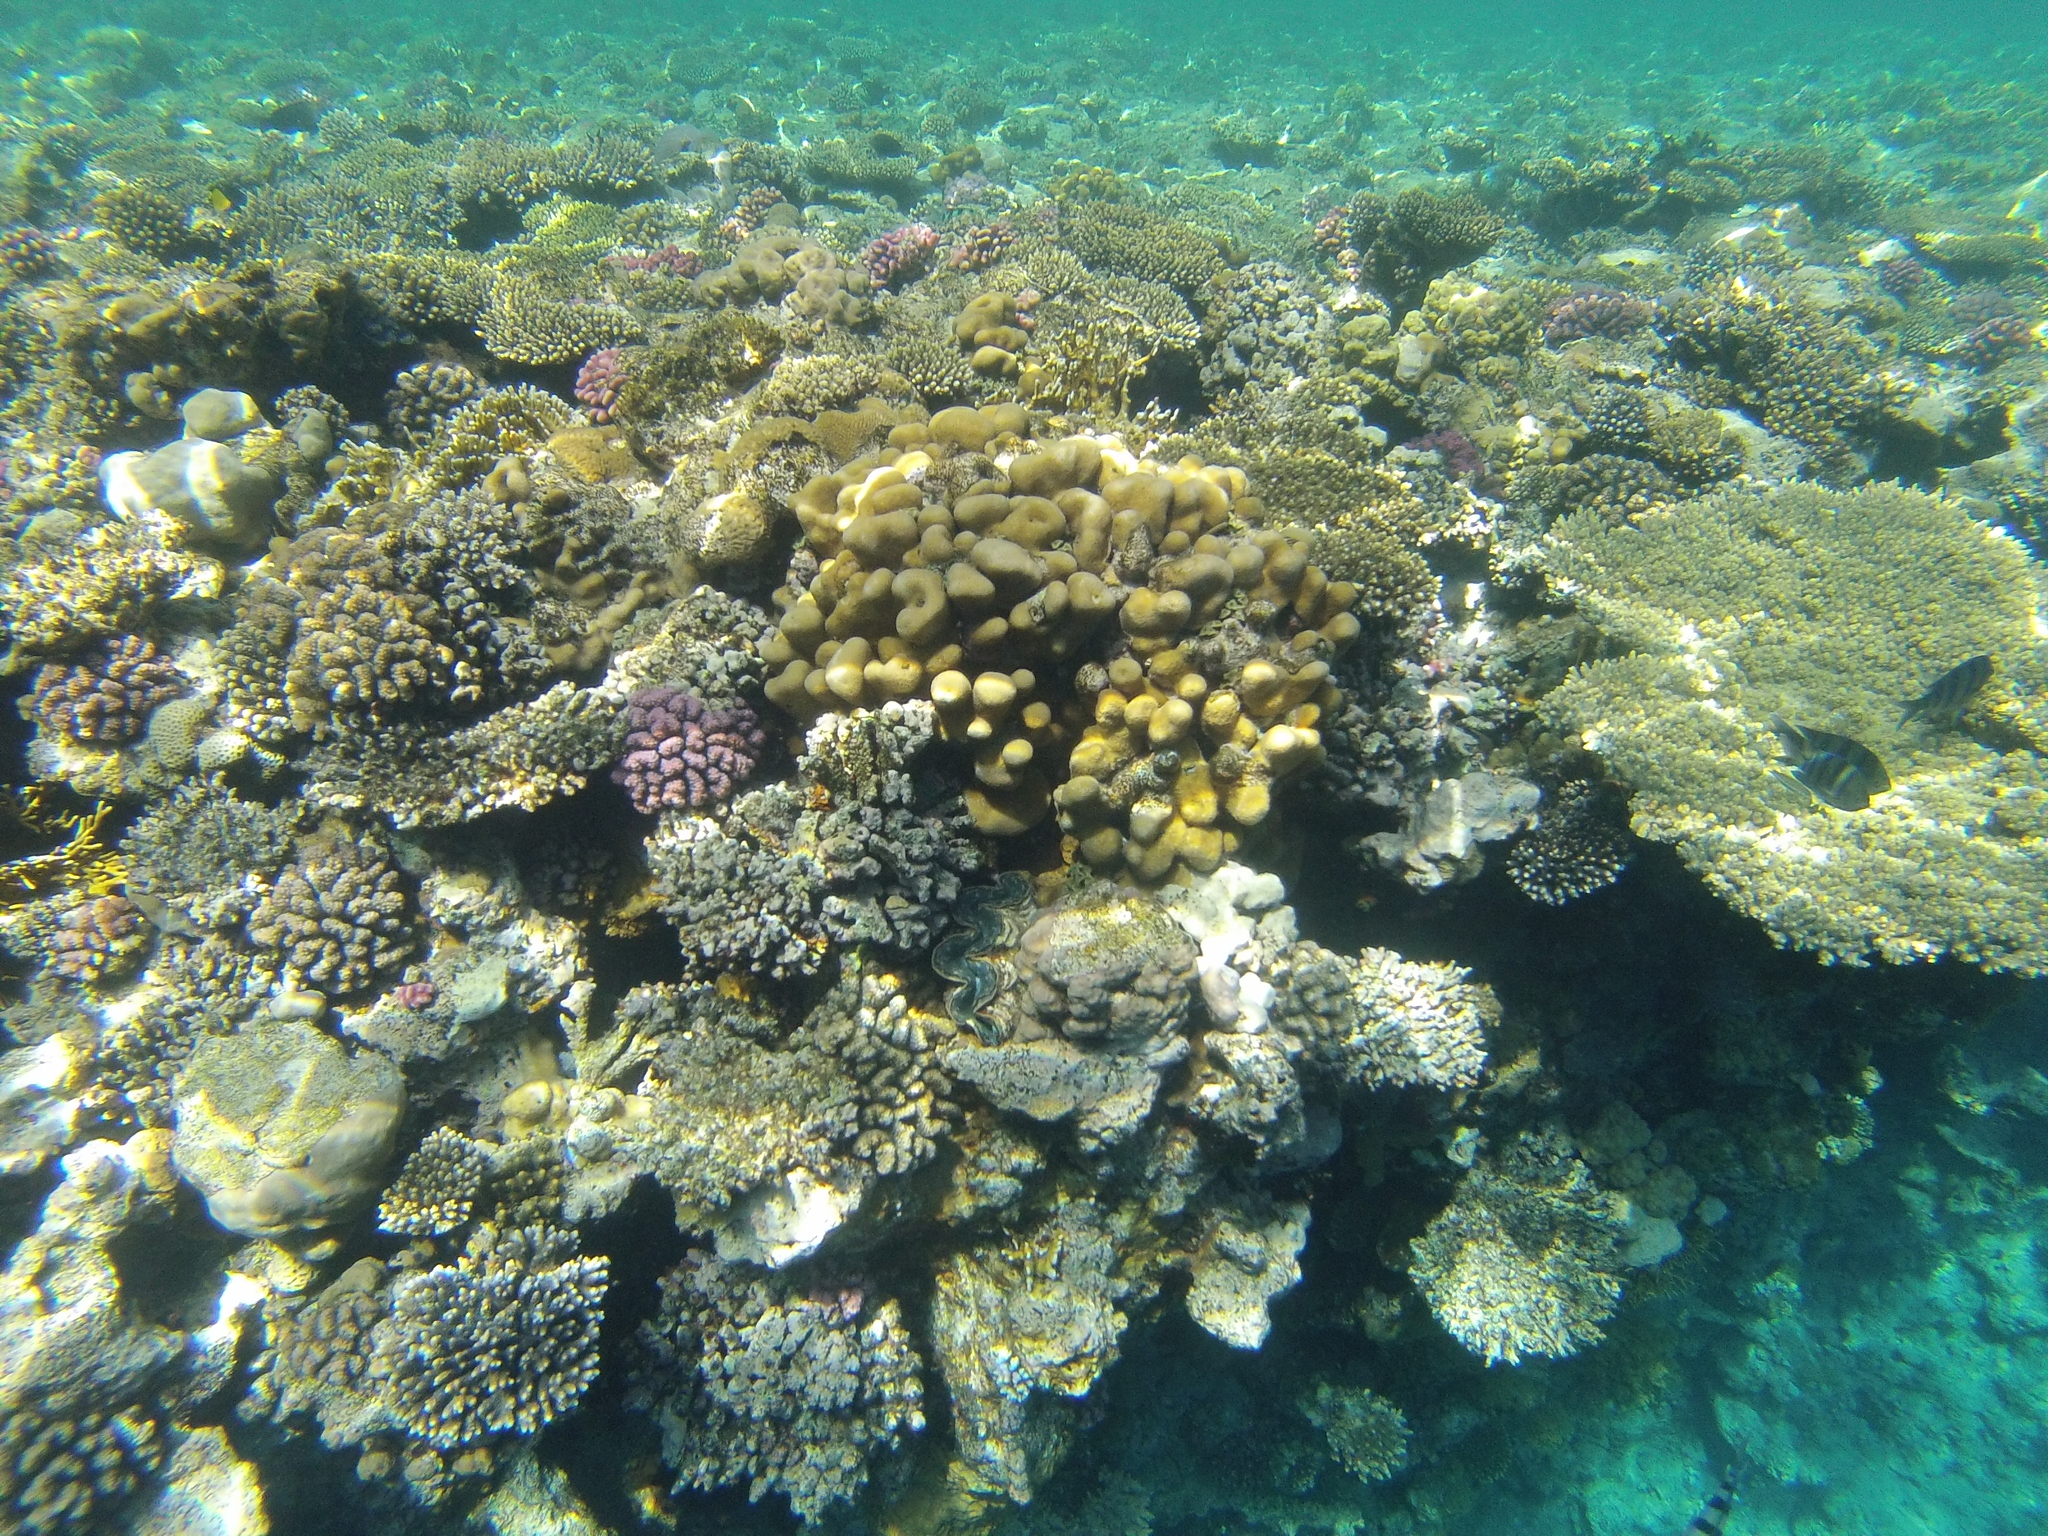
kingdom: Animalia
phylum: Cnidaria
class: Anthozoa
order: Scleractinia
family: Merulinidae
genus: Goniastrea
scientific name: Goniastrea stelligera
